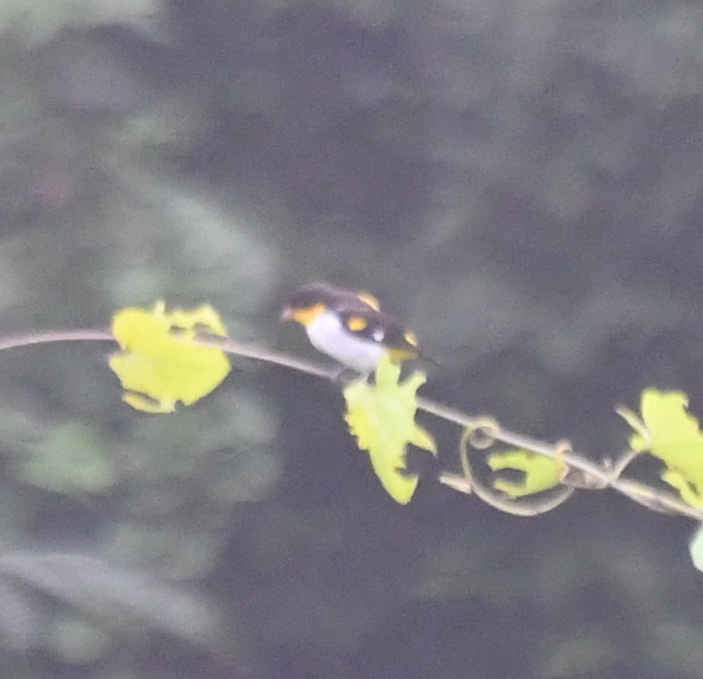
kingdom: Animalia
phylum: Chordata
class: Aves
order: Passeriformes
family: Thraupidae
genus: Hemithraupis
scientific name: Hemithraupis flavicollis
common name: Yellow-backed tanager
